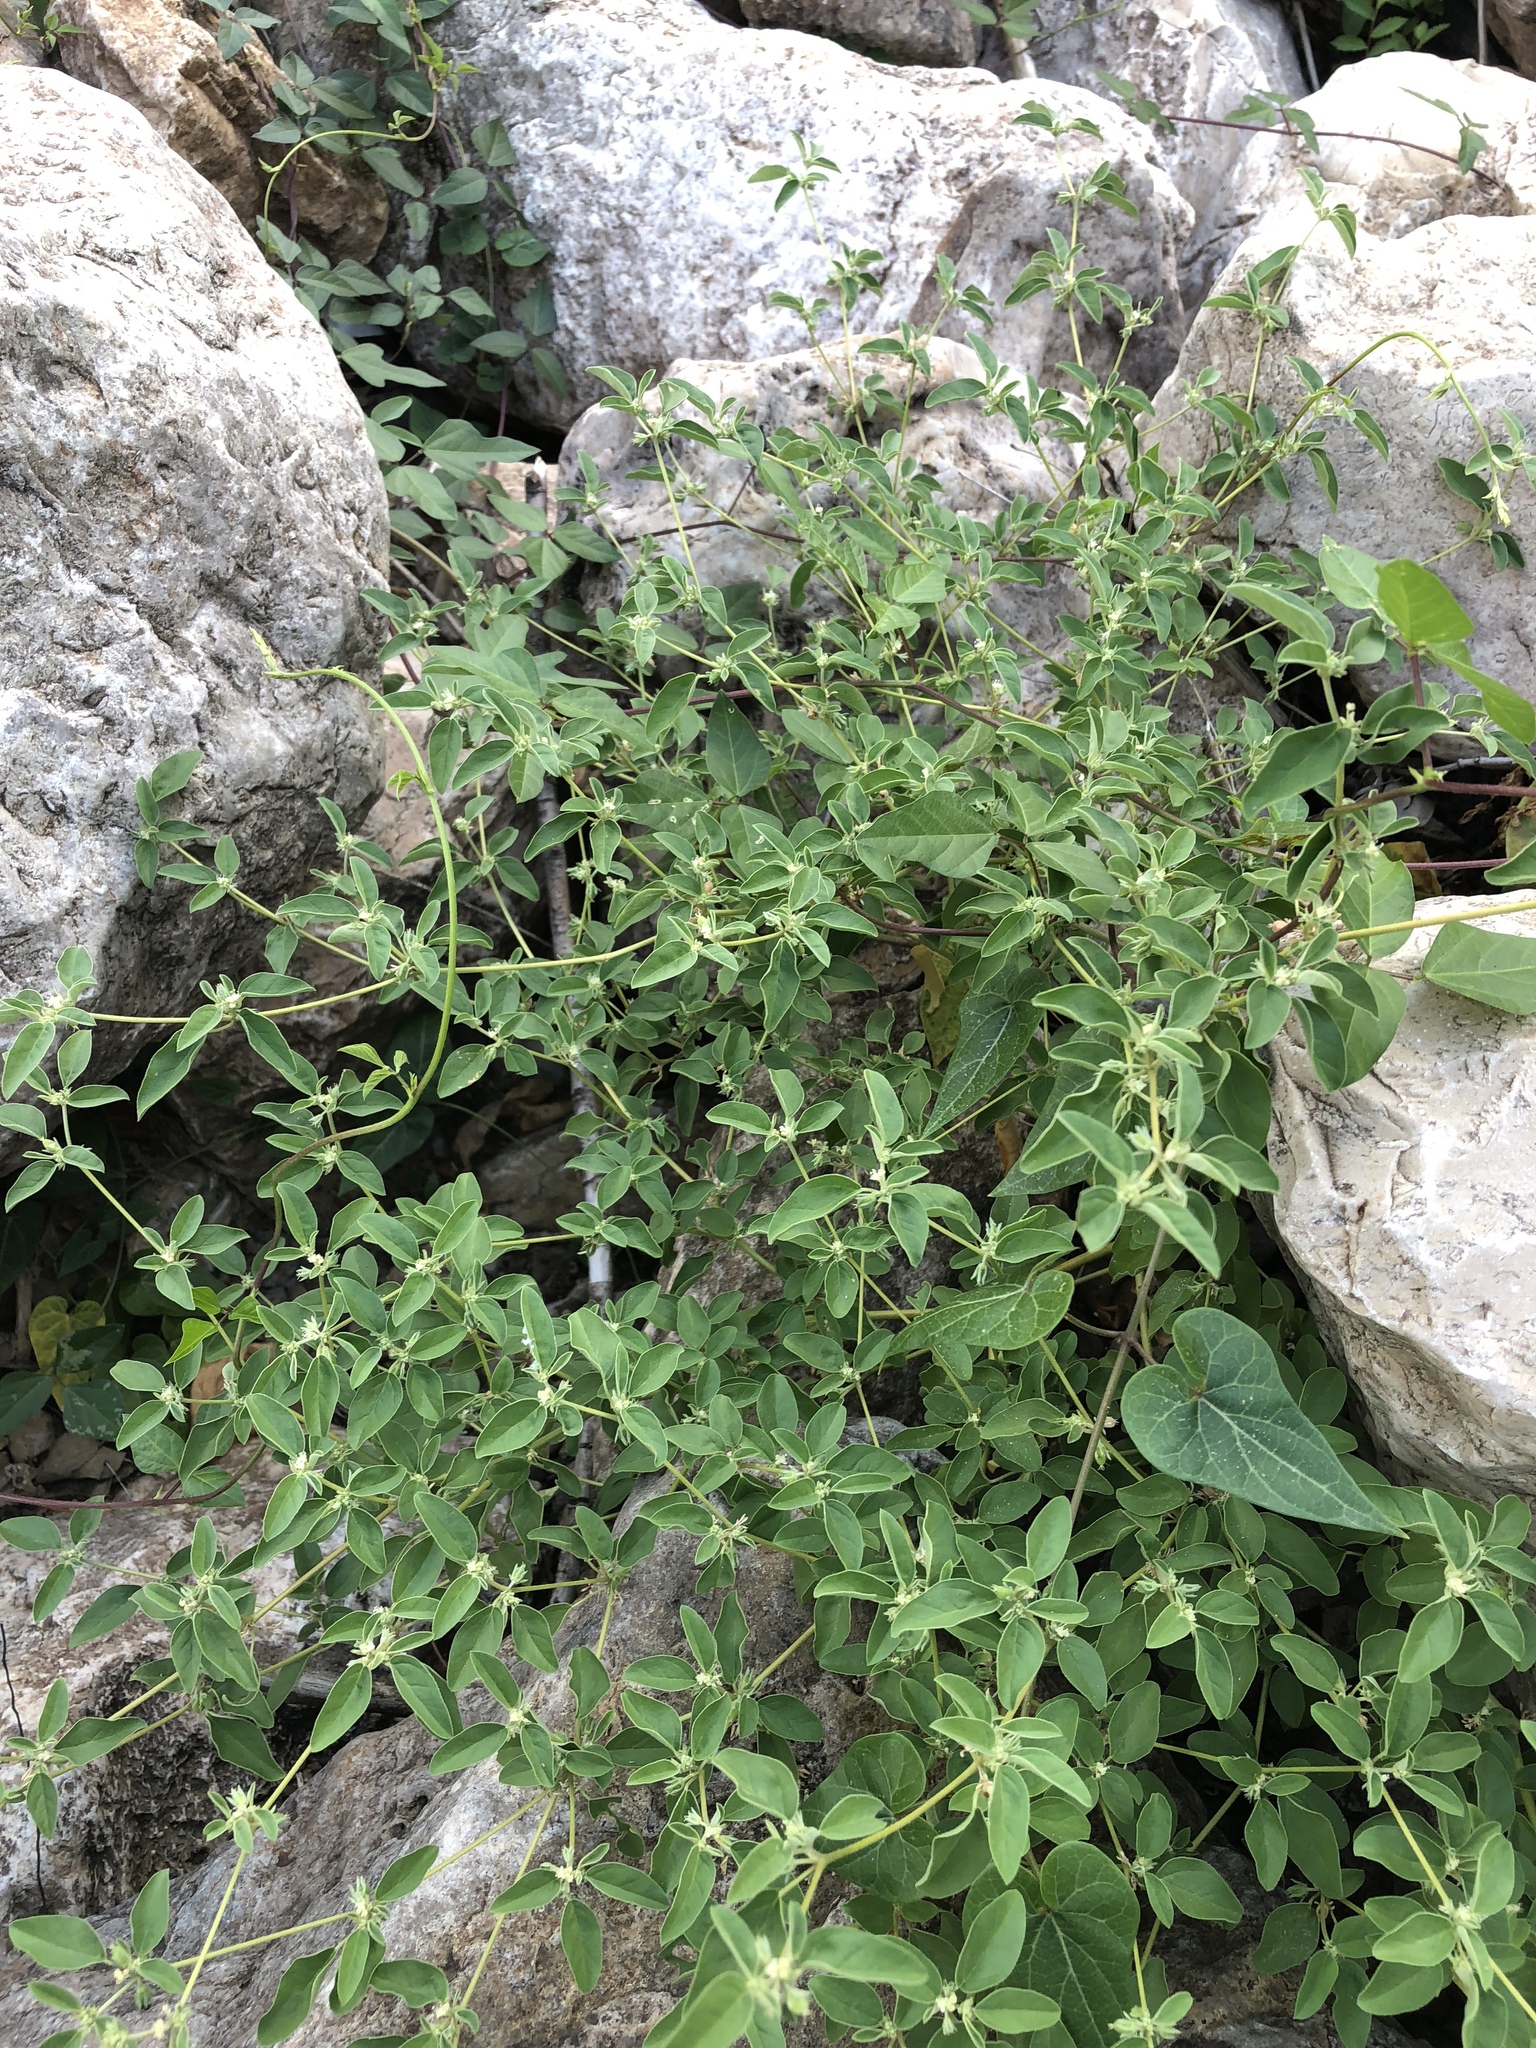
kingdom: Plantae
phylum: Tracheophyta
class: Magnoliopsida
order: Malpighiales
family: Euphorbiaceae
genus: Croton
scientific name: Croton monanthogynus
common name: One-seed croton
